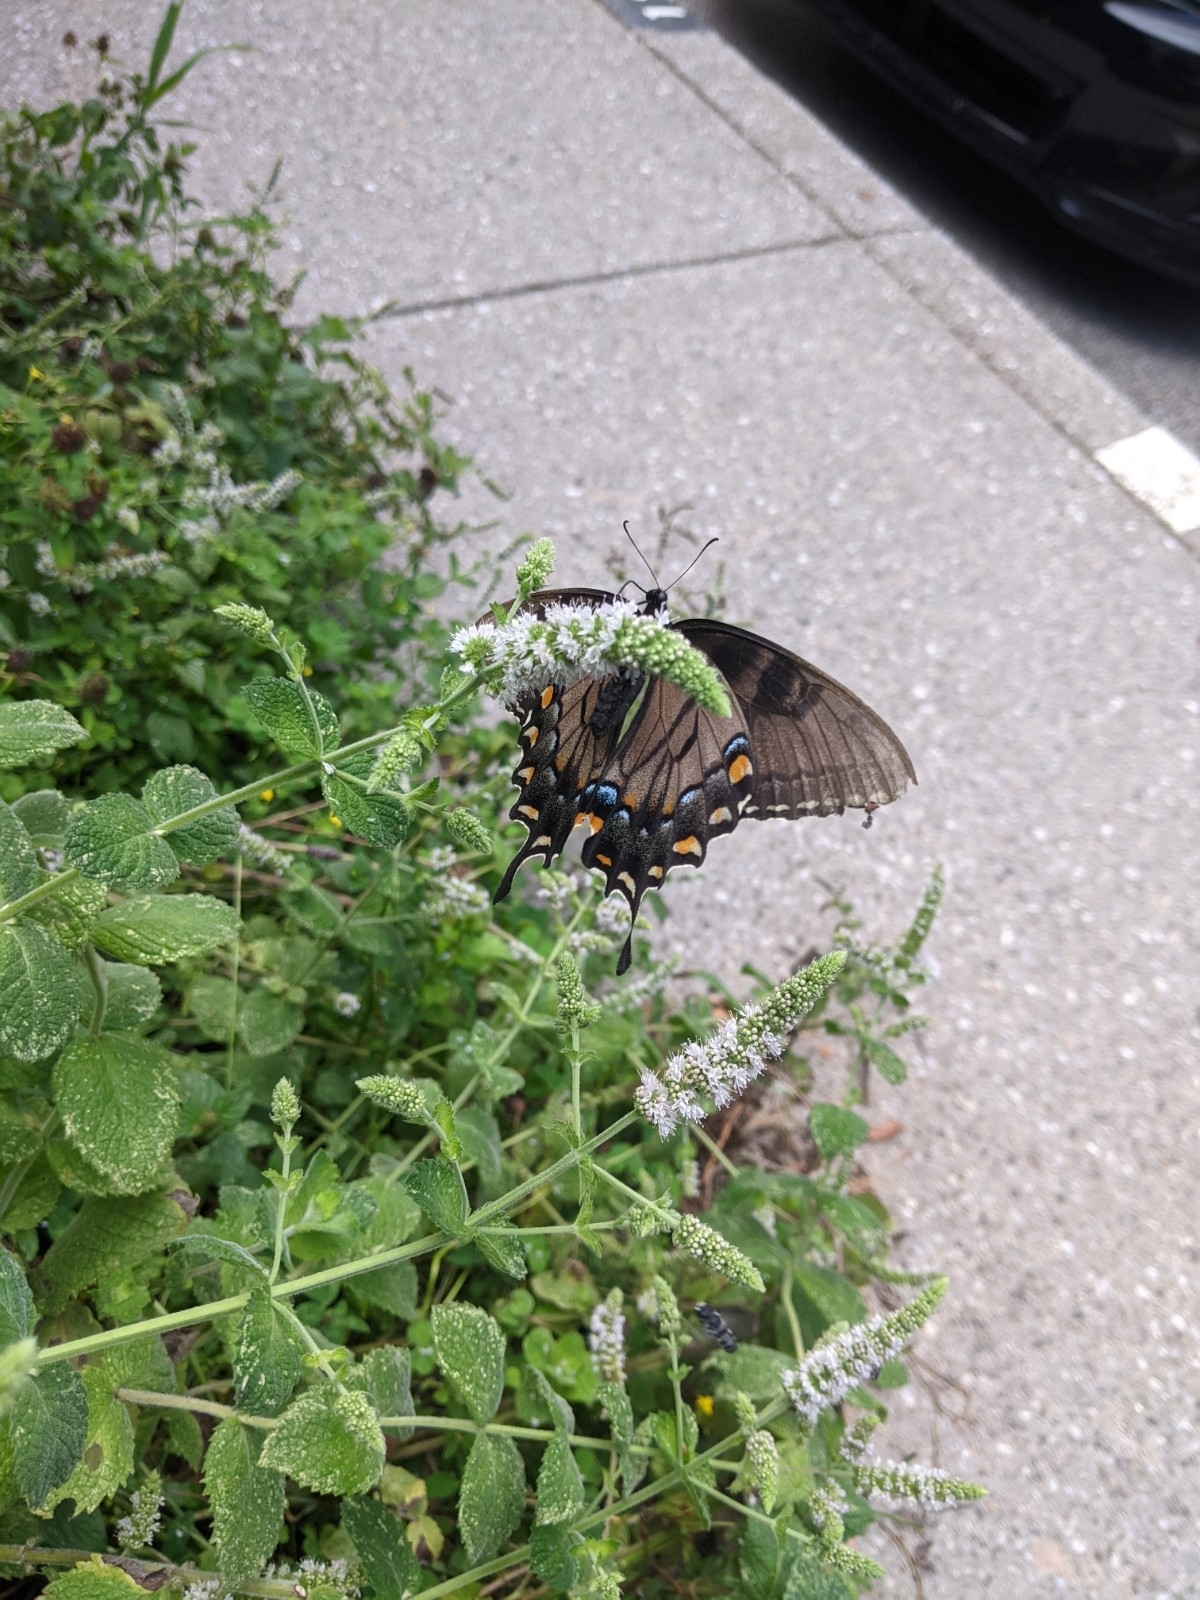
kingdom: Animalia
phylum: Arthropoda
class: Insecta
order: Lepidoptera
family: Papilionidae
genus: Papilio
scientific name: Papilio glaucus
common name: Tiger swallowtail
